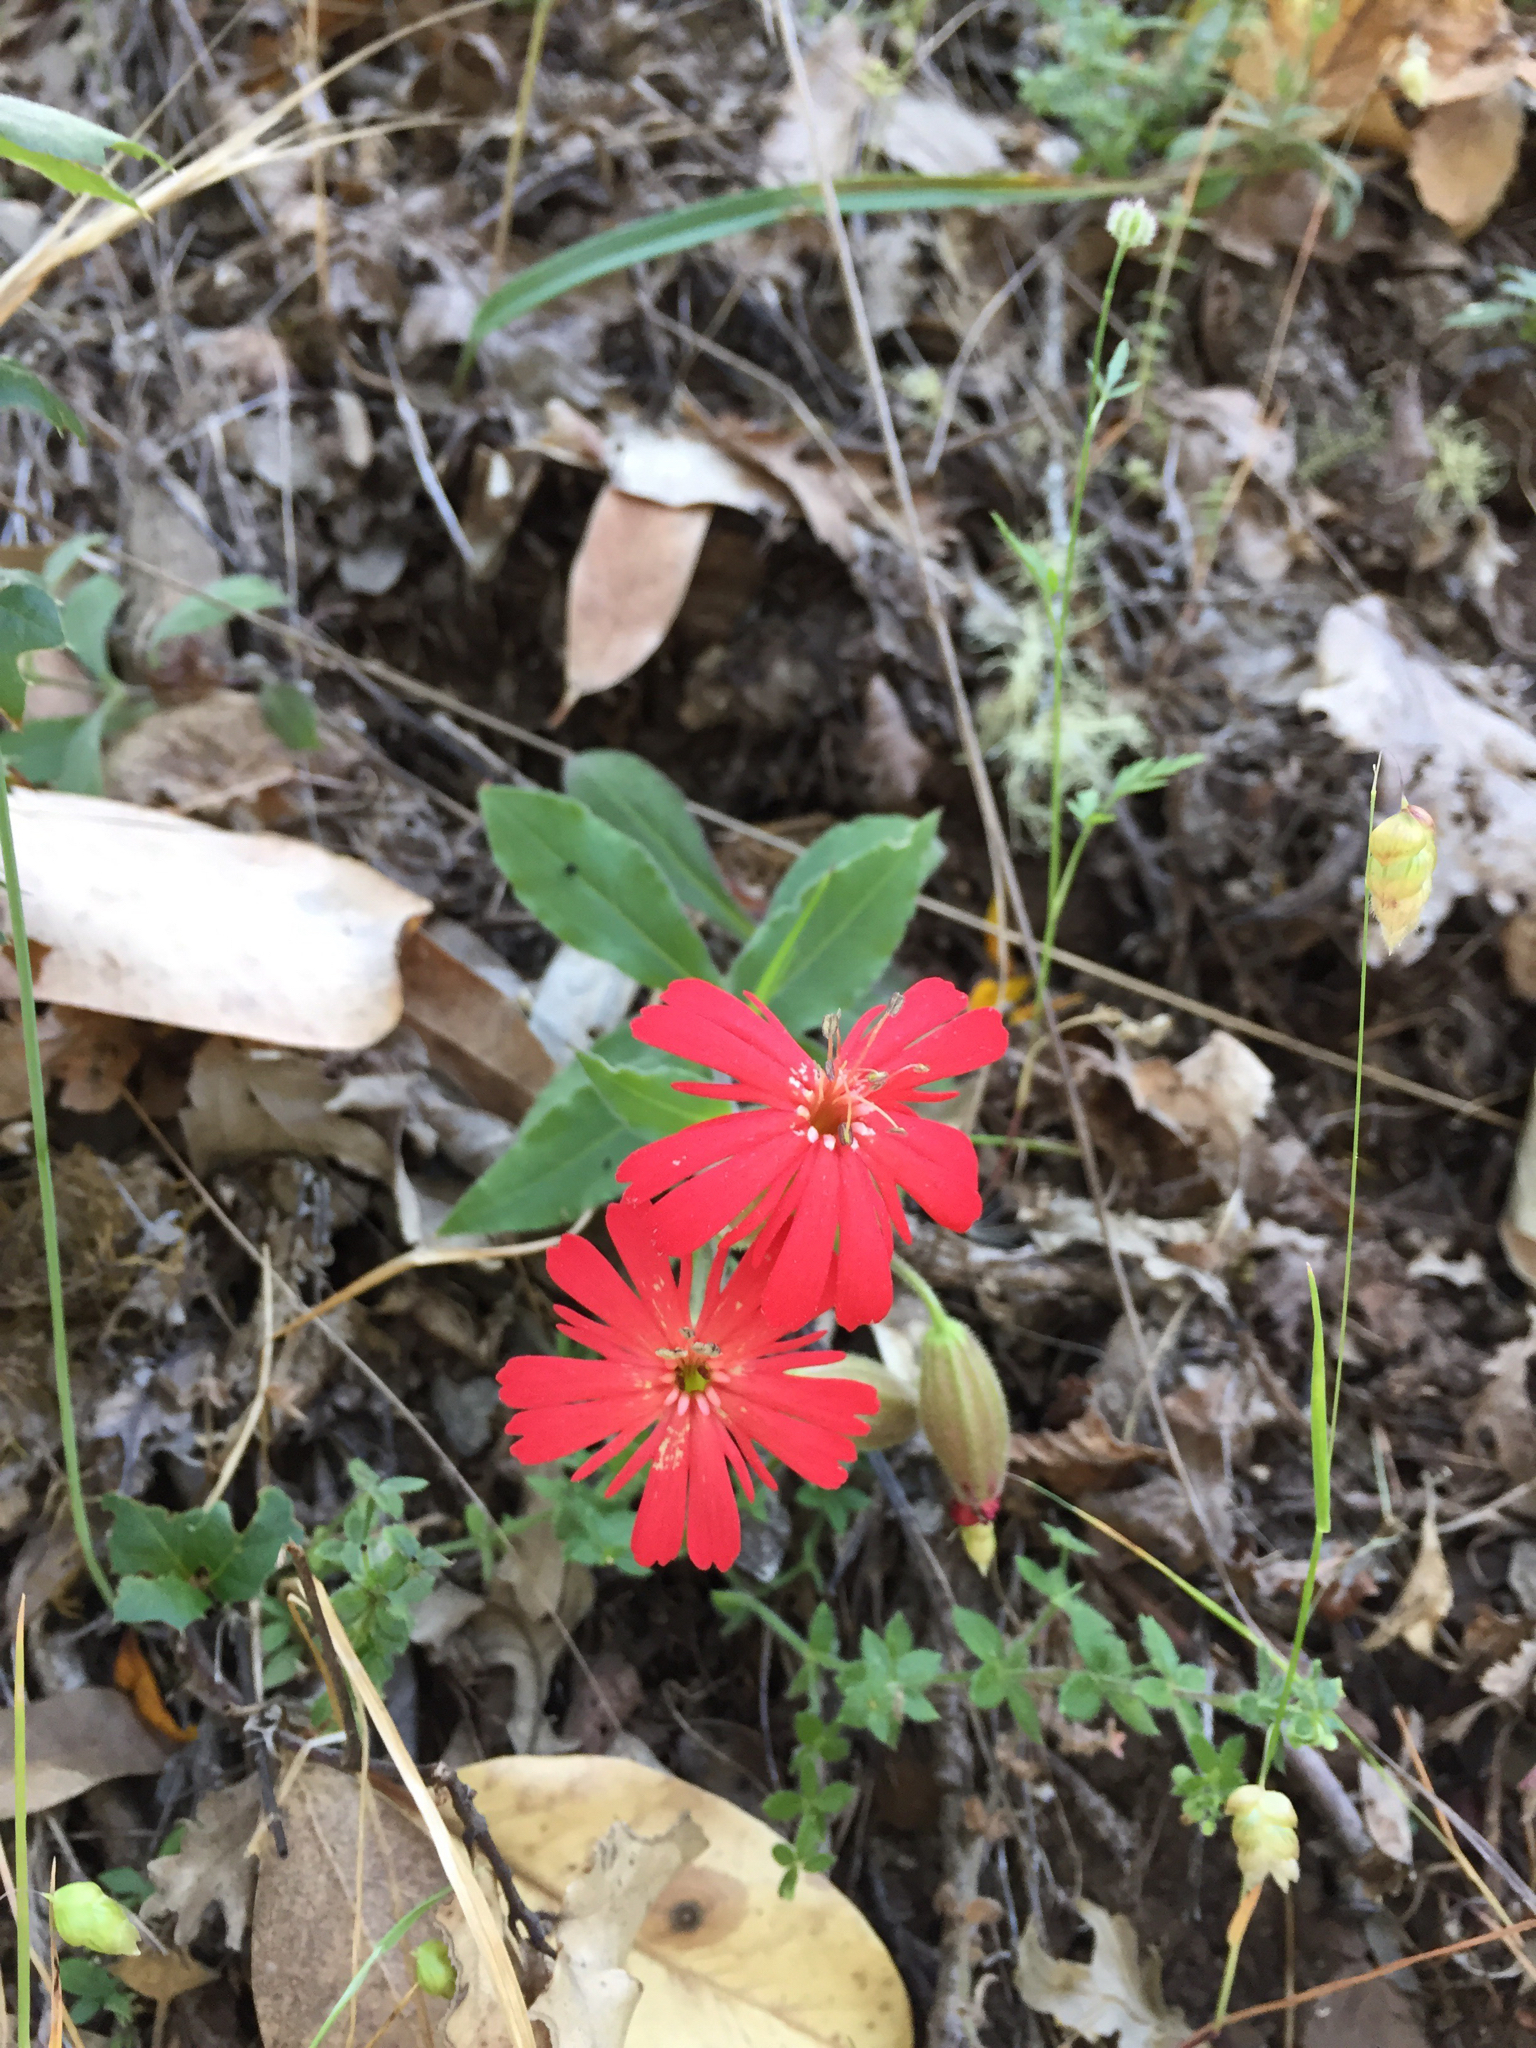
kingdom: Plantae
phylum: Tracheophyta
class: Magnoliopsida
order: Caryophyllales
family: Caryophyllaceae
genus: Silene
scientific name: Silene laciniata
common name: Indian-pink
